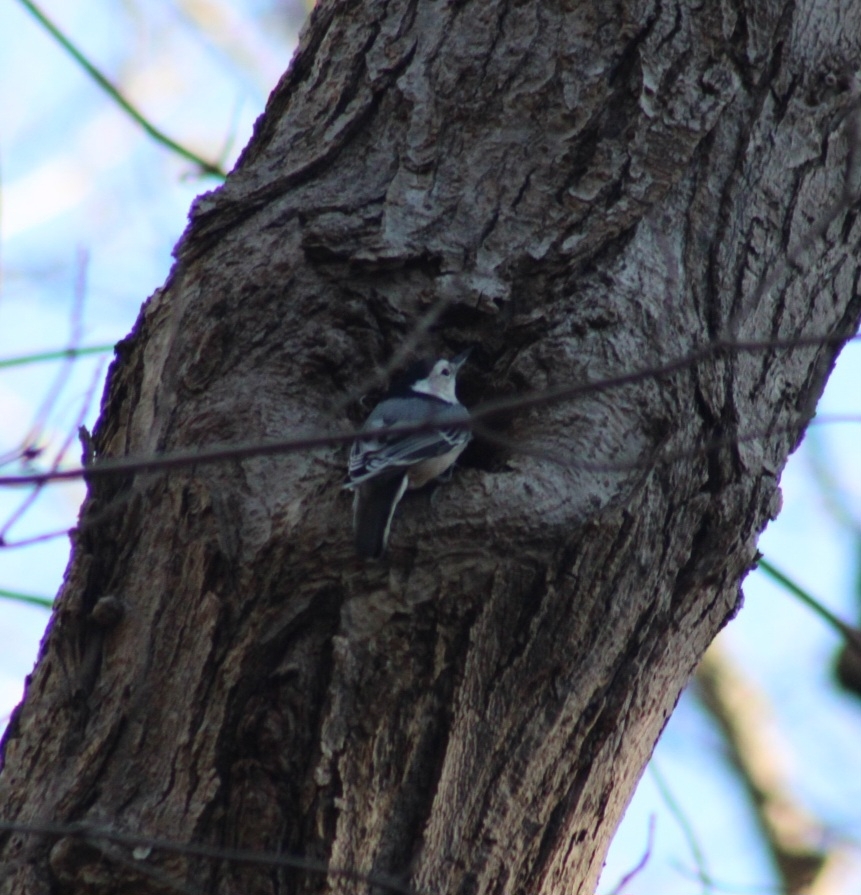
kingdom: Animalia
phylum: Chordata
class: Aves
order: Passeriformes
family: Sittidae
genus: Sitta
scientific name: Sitta carolinensis
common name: White-breasted nuthatch
